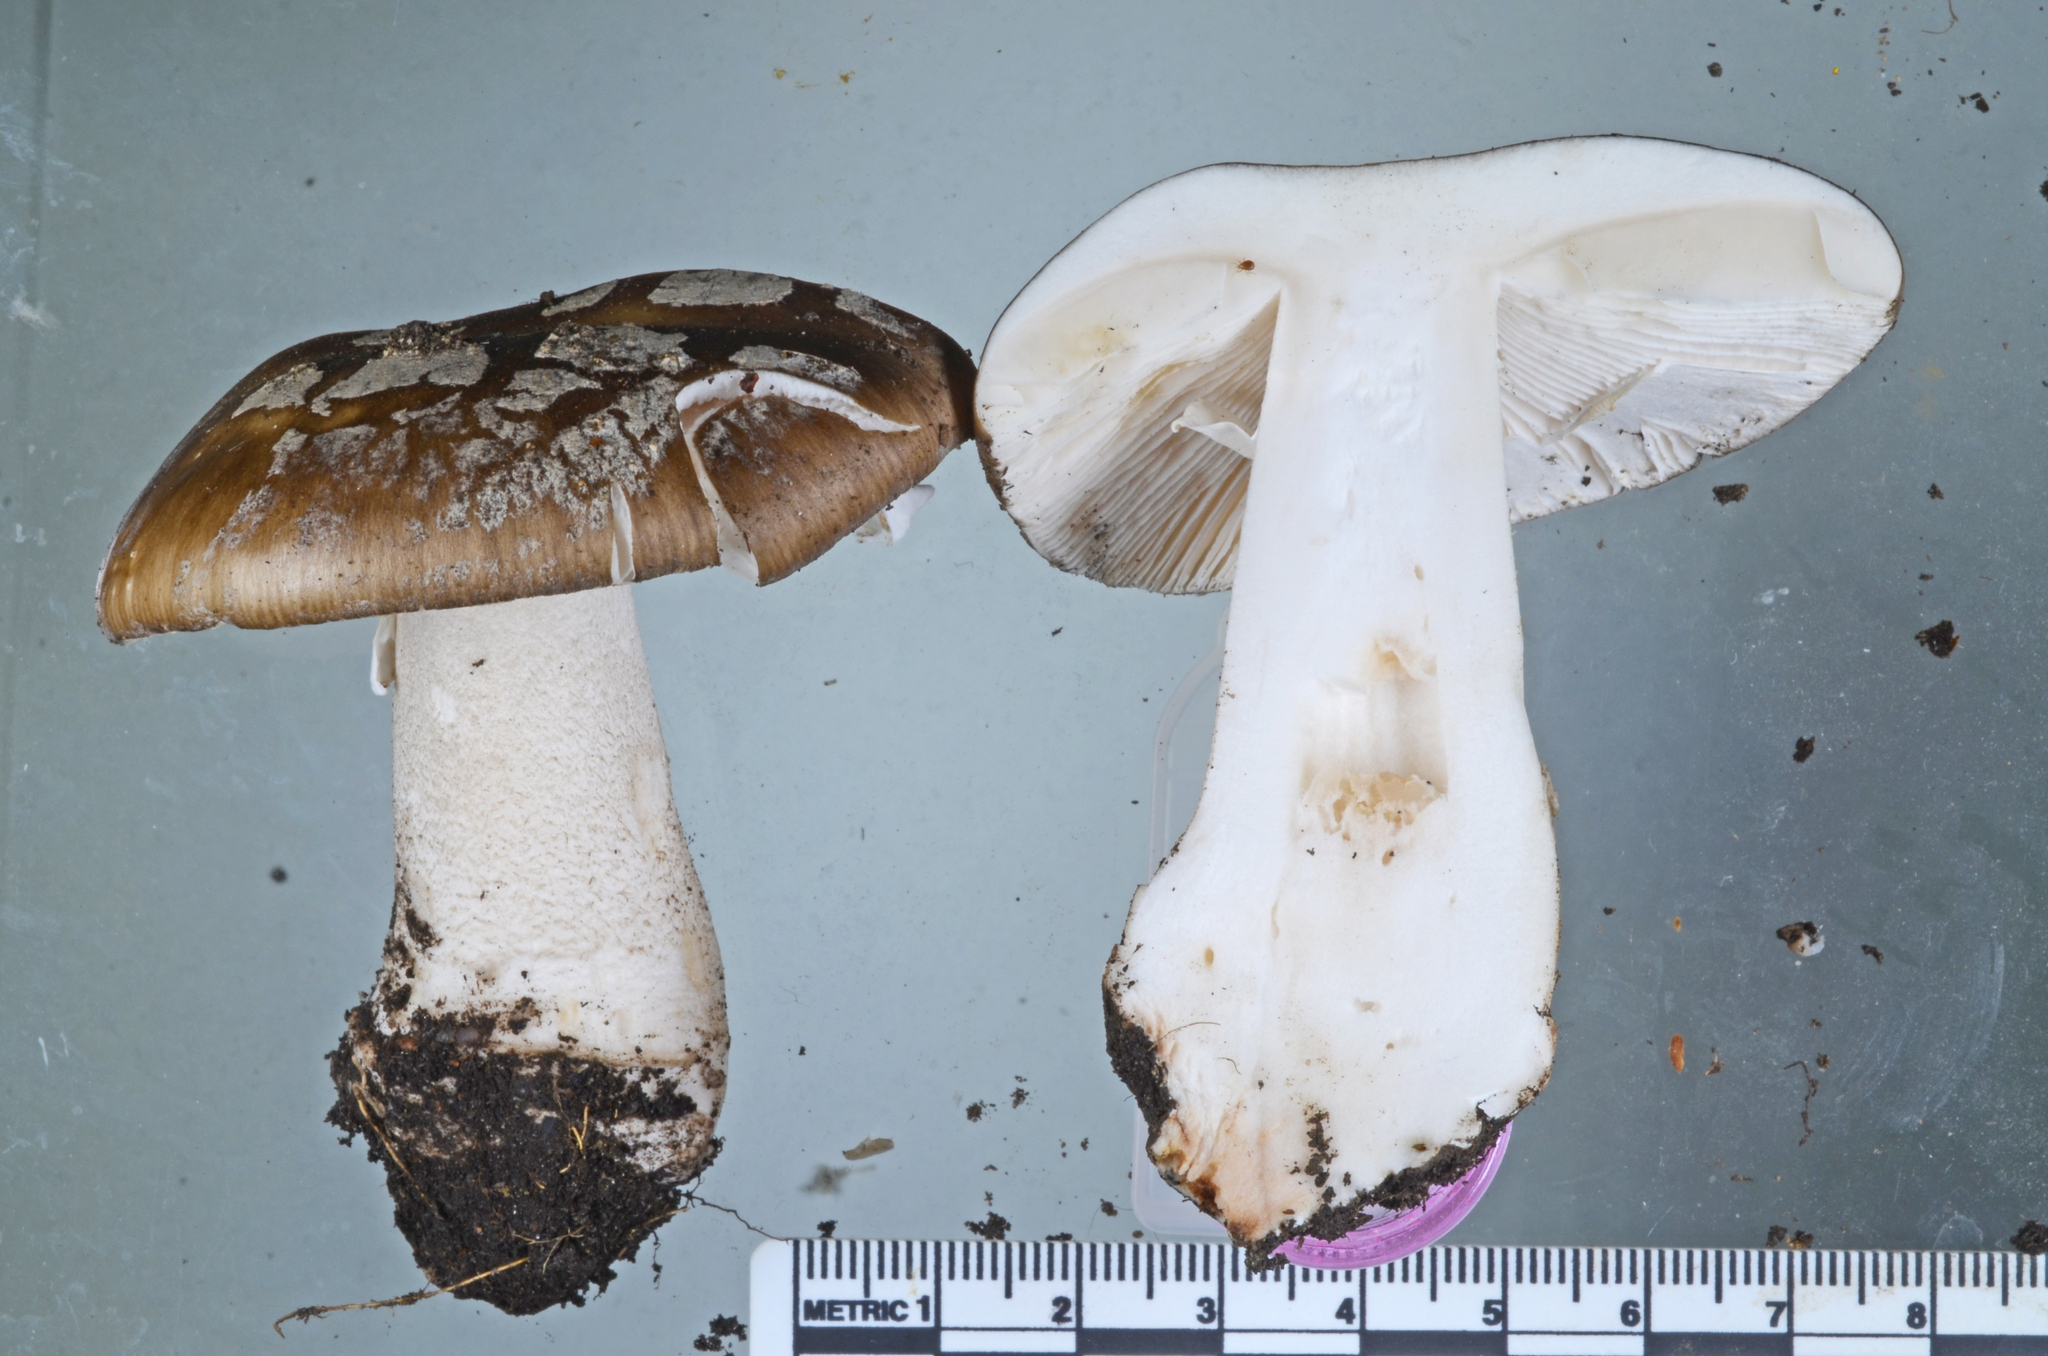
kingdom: Fungi
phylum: Basidiomycota
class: Agaricomycetes
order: Agaricales
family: Amanitaceae
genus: Amanita
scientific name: Amanita excelsa
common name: European false blusher
